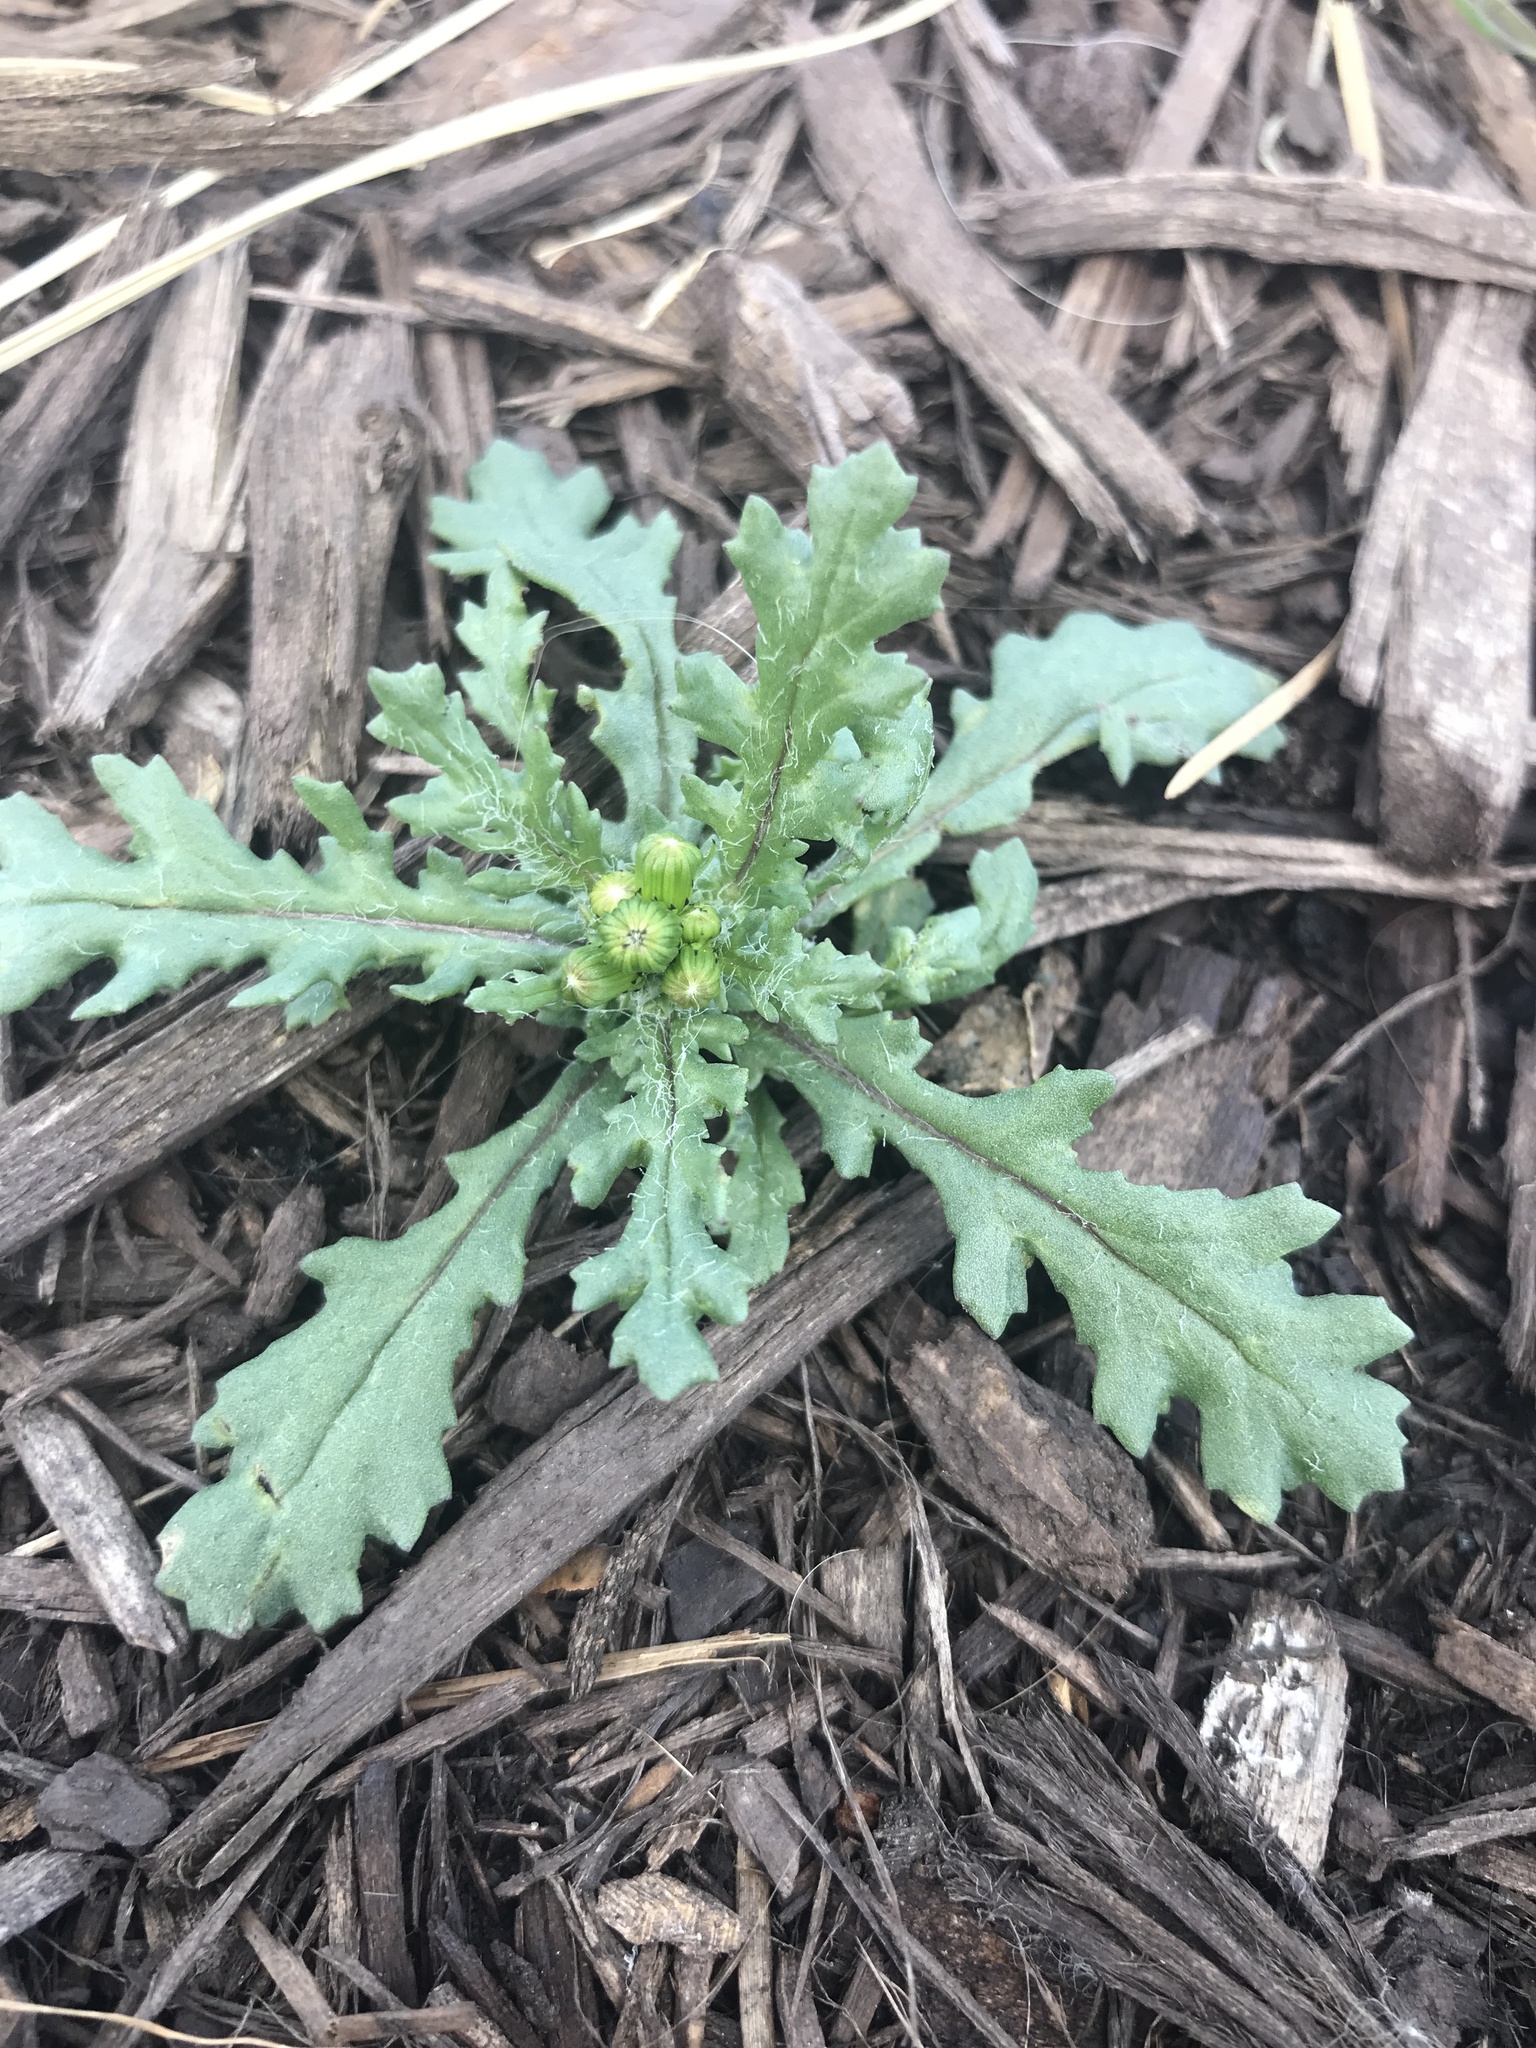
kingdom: Plantae
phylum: Tracheophyta
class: Magnoliopsida
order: Asterales
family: Asteraceae
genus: Senecio
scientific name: Senecio vulgaris
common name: Old-man-in-the-spring
